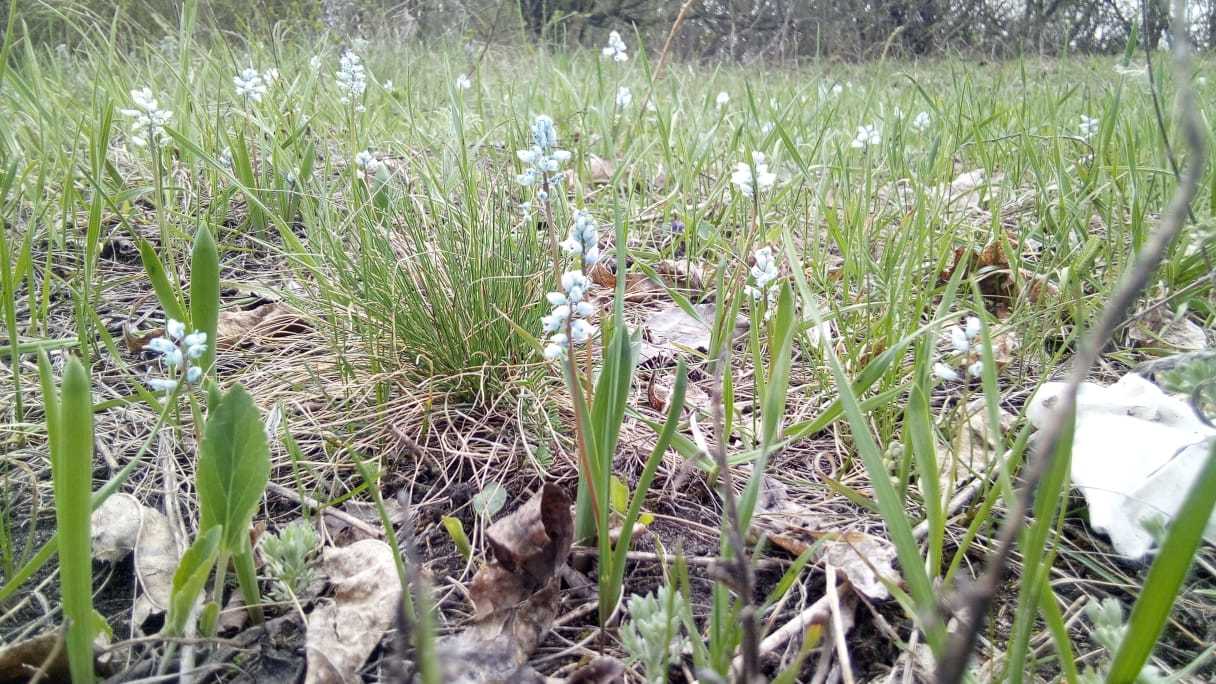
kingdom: Plantae
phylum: Tracheophyta
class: Liliopsida
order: Asparagales
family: Asparagaceae
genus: Hyacinthella
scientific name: Hyacinthella leucophaea
